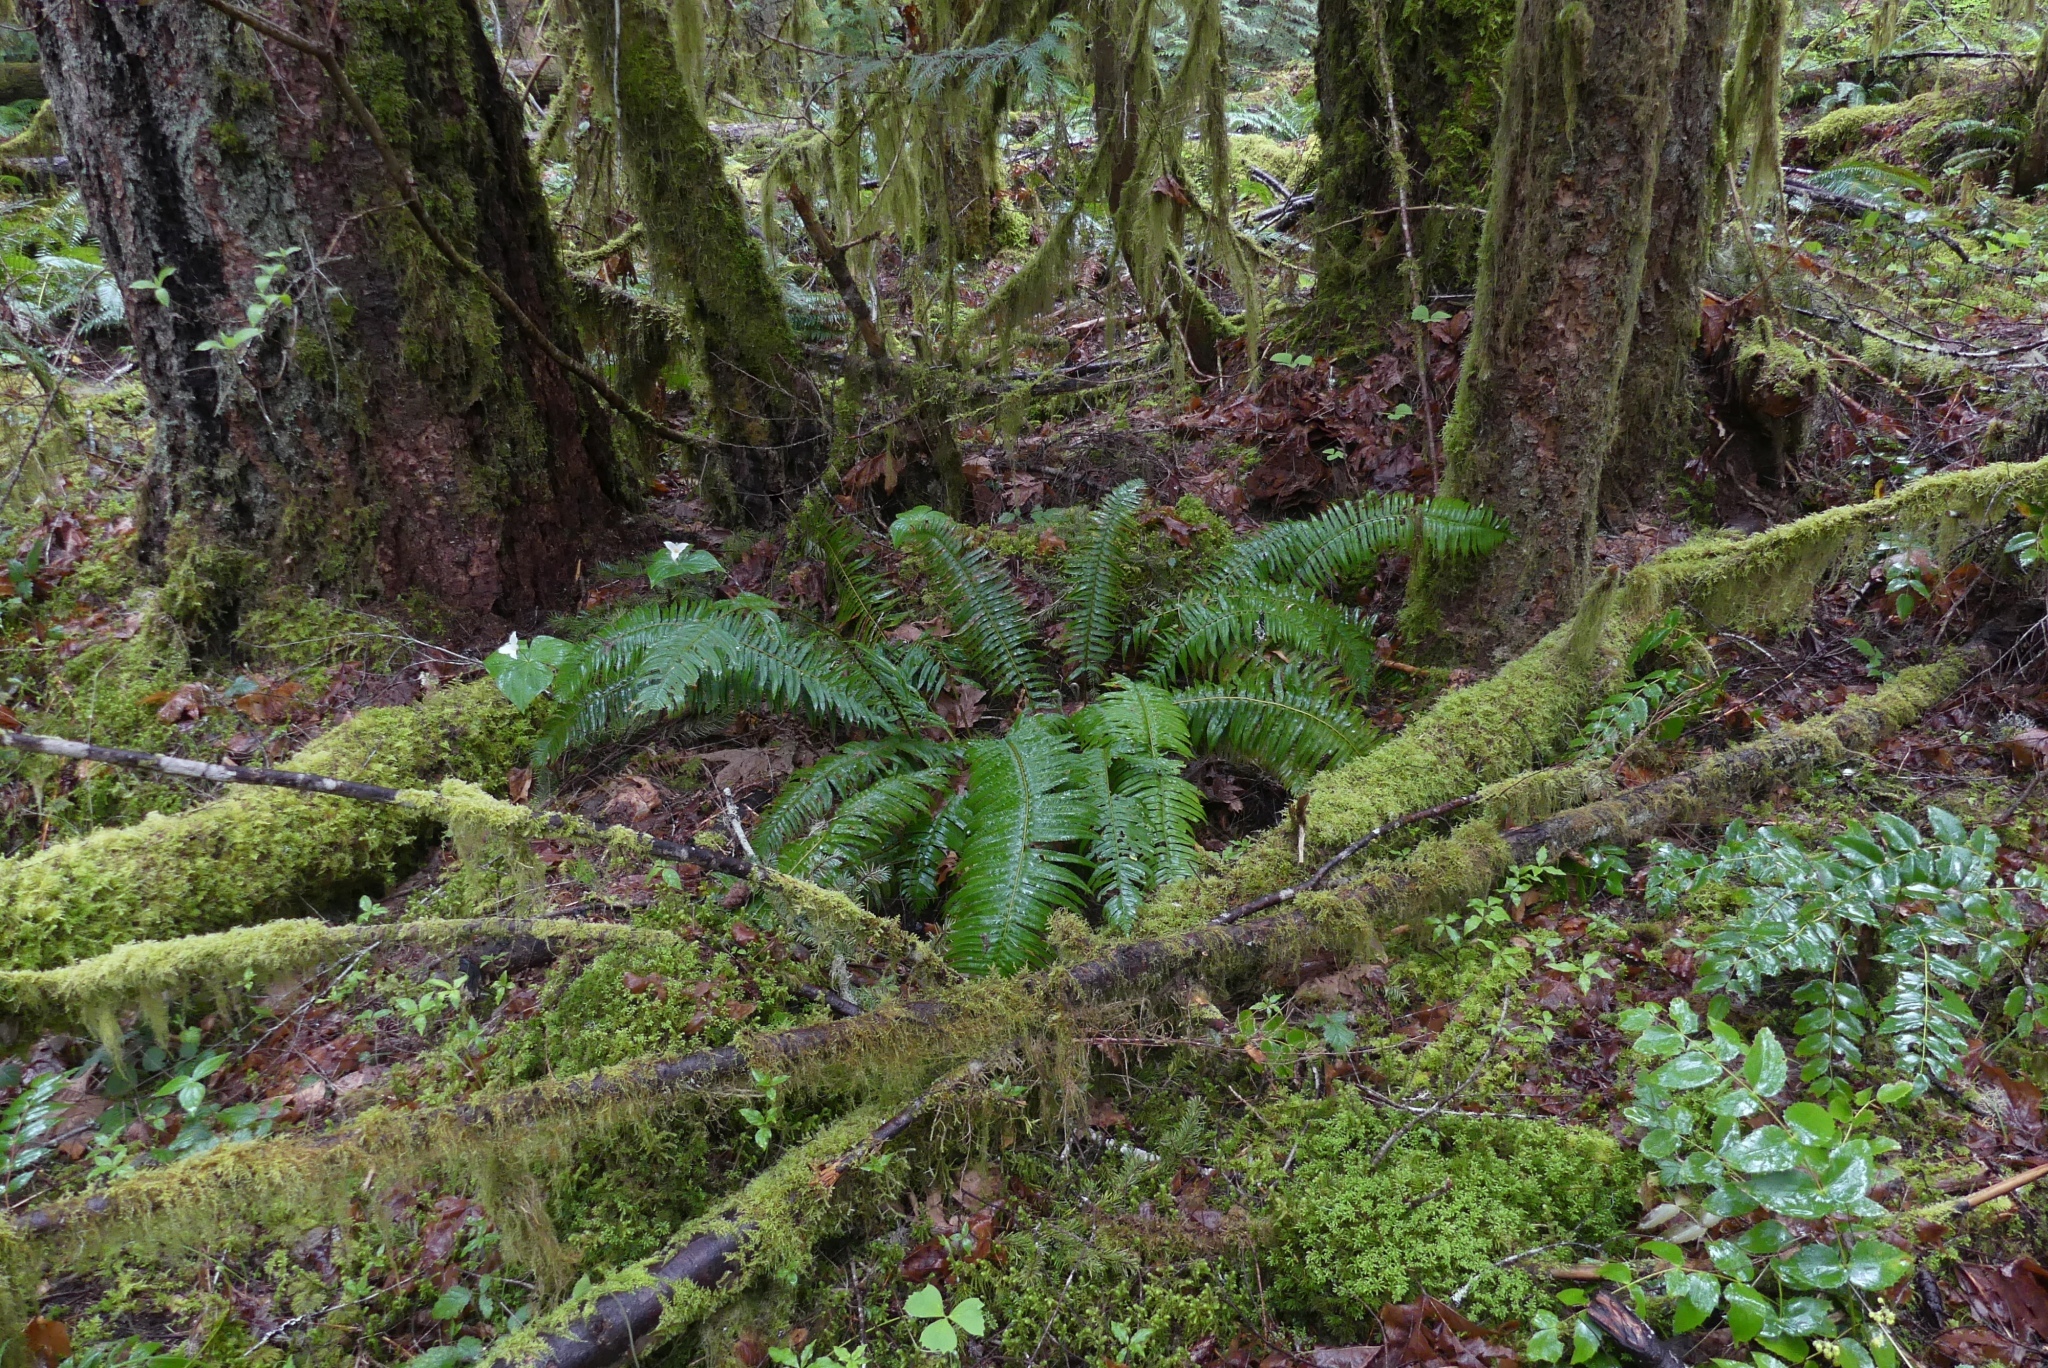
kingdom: Plantae
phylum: Tracheophyta
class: Polypodiopsida
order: Polypodiales
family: Dryopteridaceae
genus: Polystichum
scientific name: Polystichum munitum
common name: Western sword-fern
